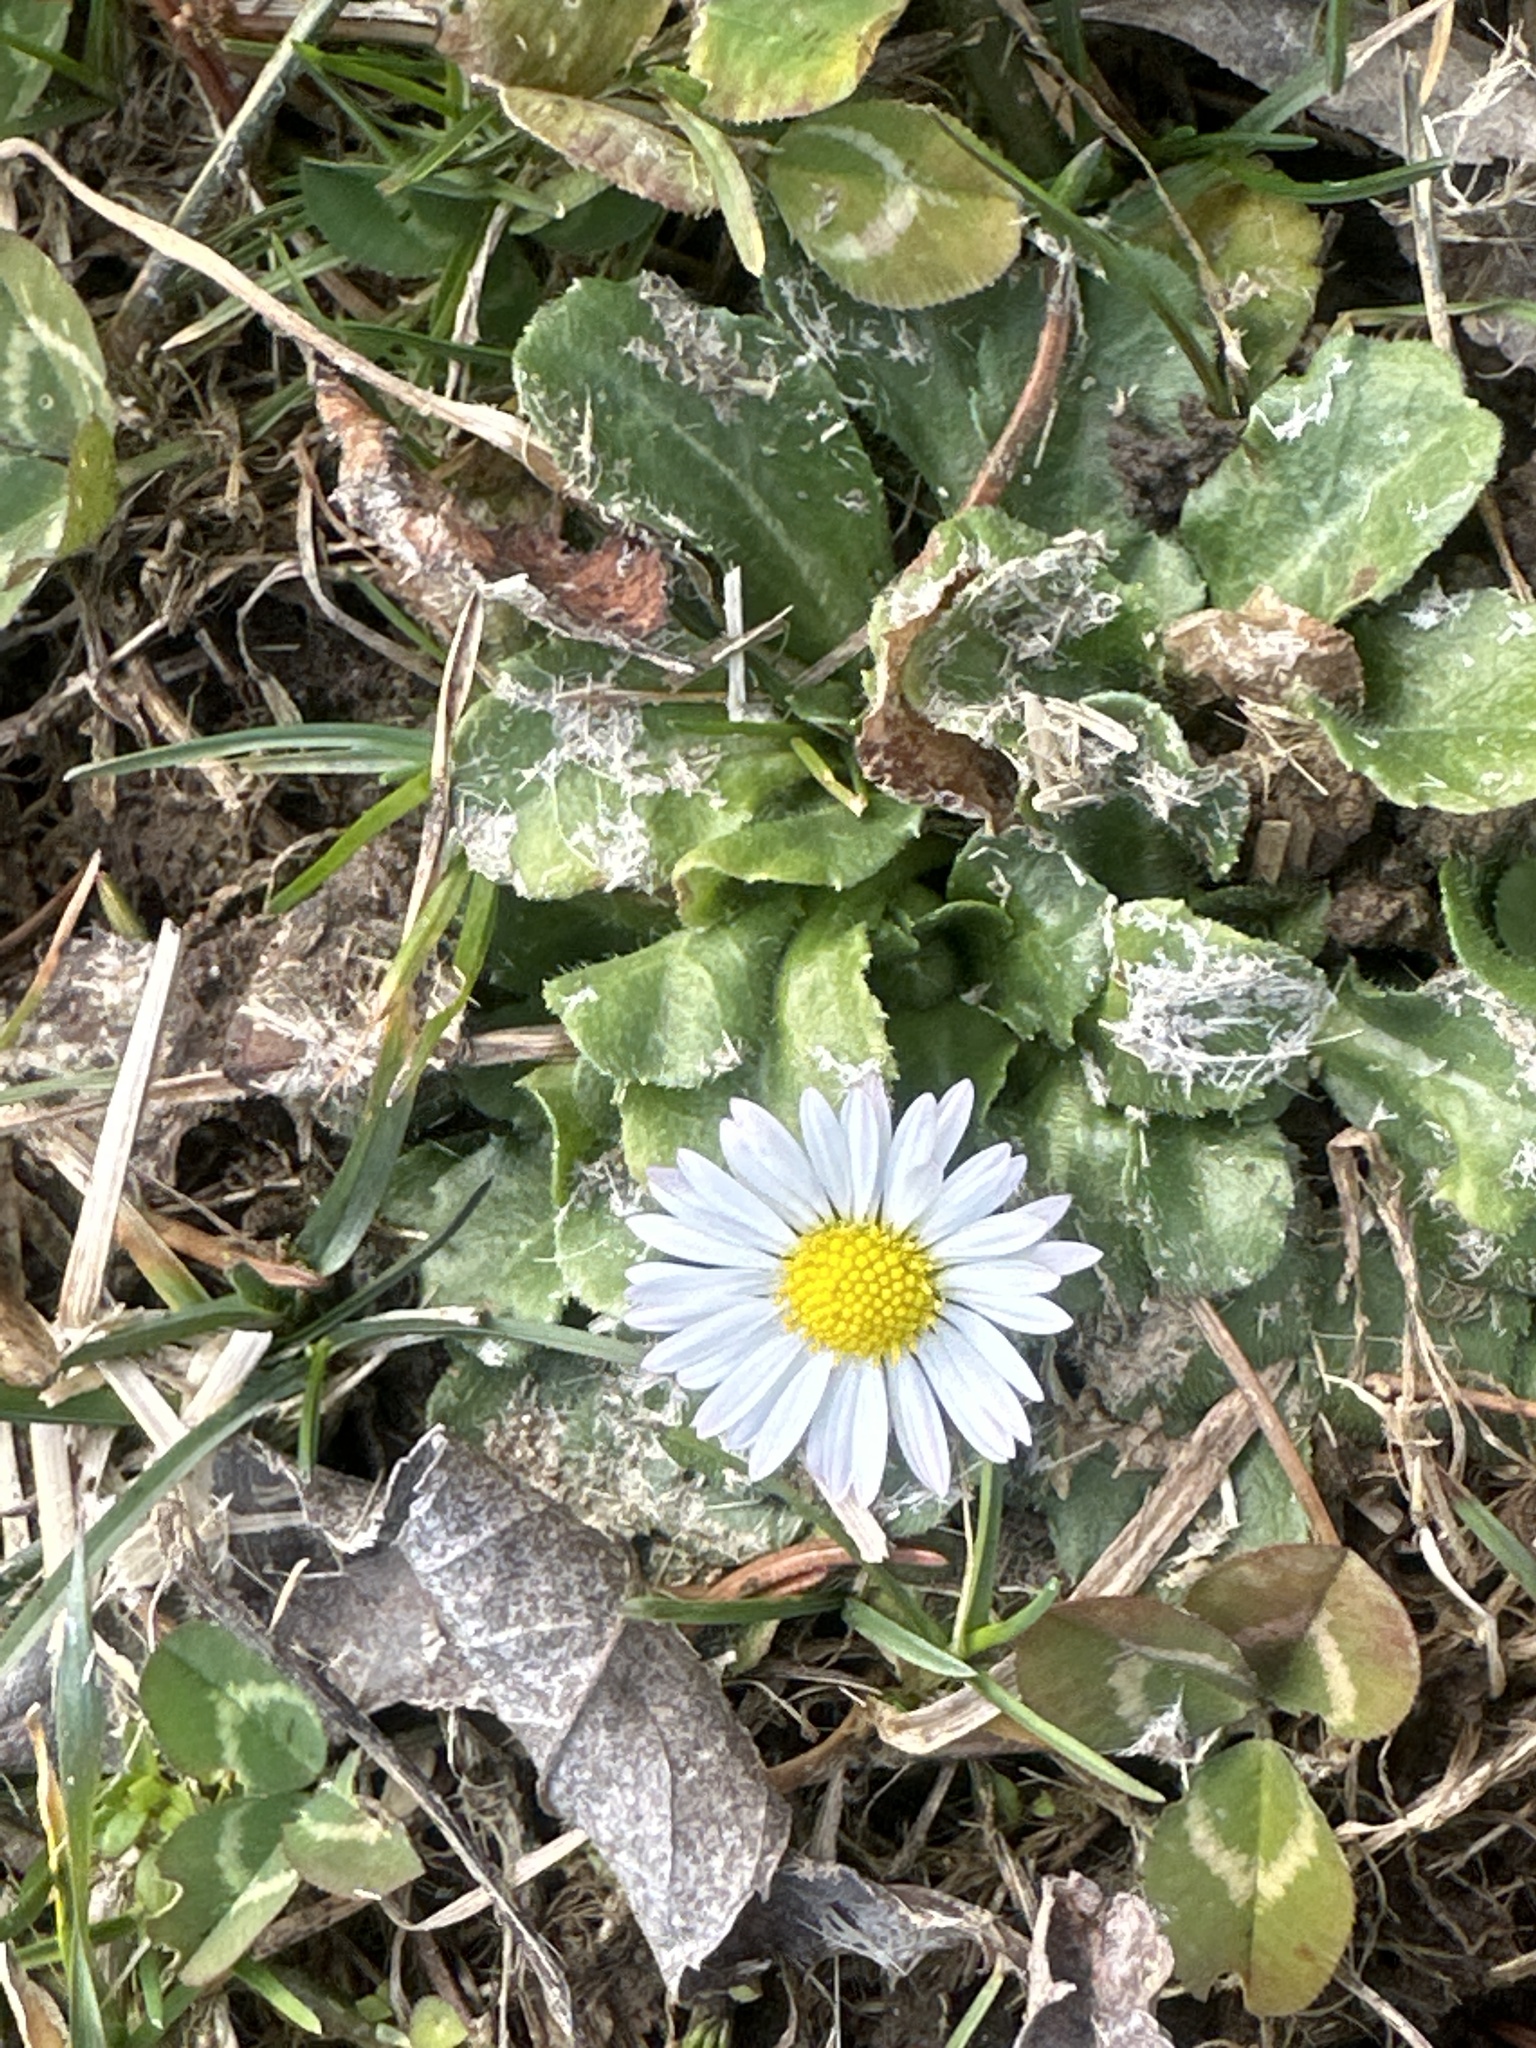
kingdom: Plantae
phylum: Tracheophyta
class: Magnoliopsida
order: Asterales
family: Asteraceae
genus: Bellis
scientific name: Bellis perennis
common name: Lawndaisy
